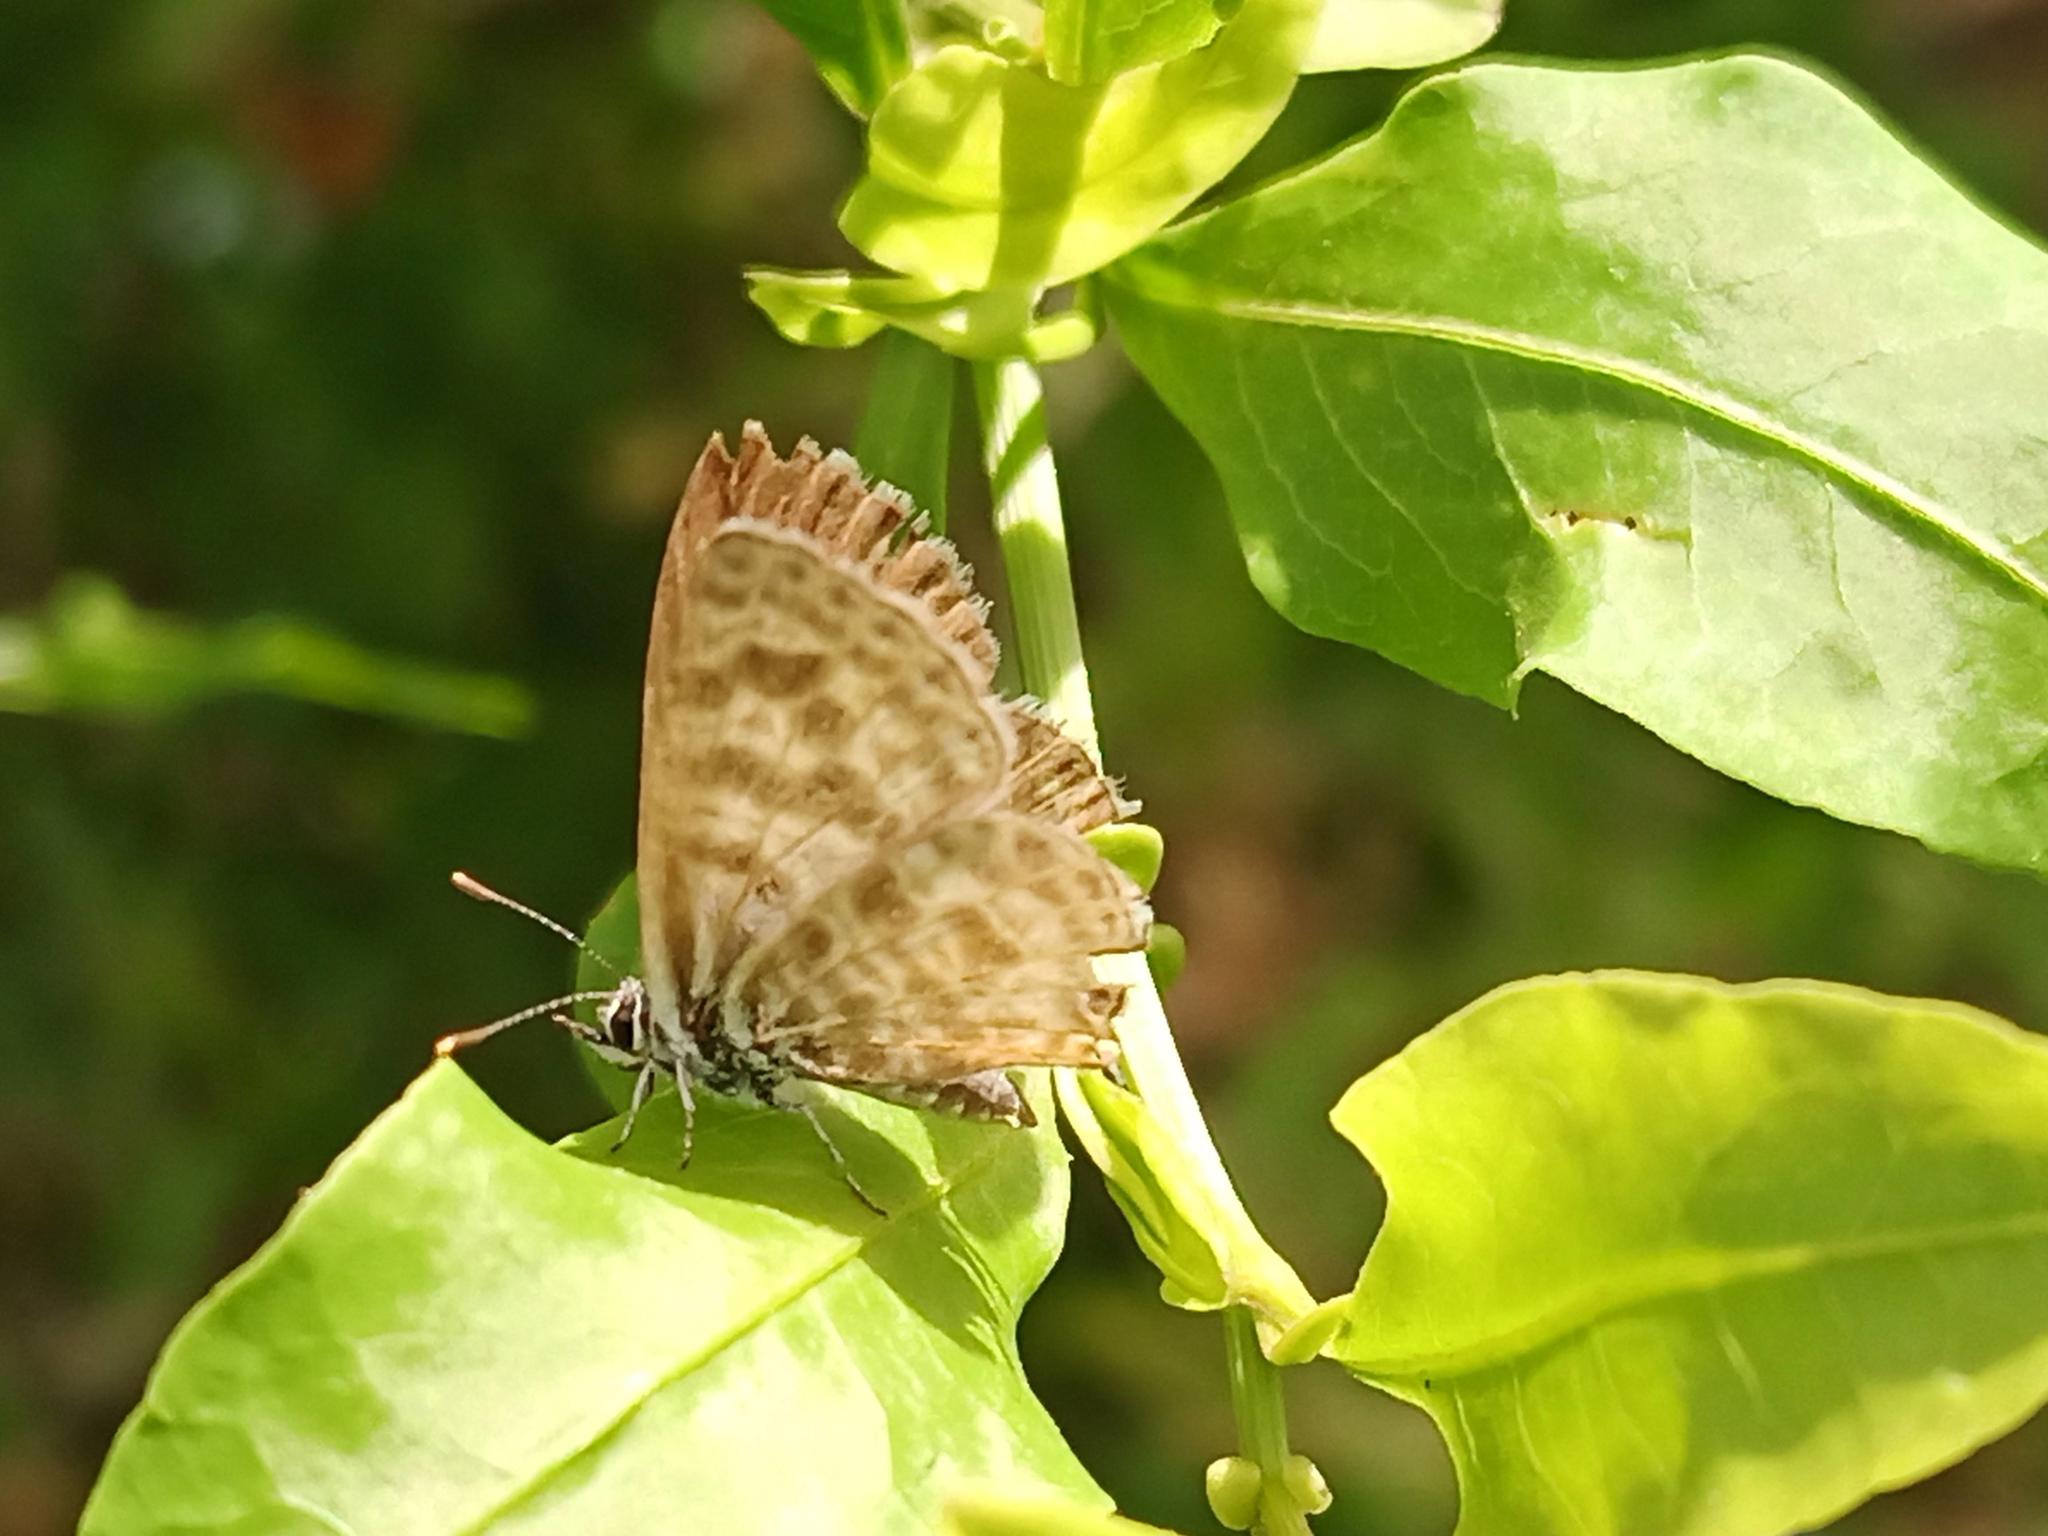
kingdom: Animalia
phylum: Arthropoda
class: Insecta
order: Lepidoptera
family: Lycaenidae
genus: Leptotes
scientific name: Leptotes pirithous
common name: Lang's short-tailed blue
